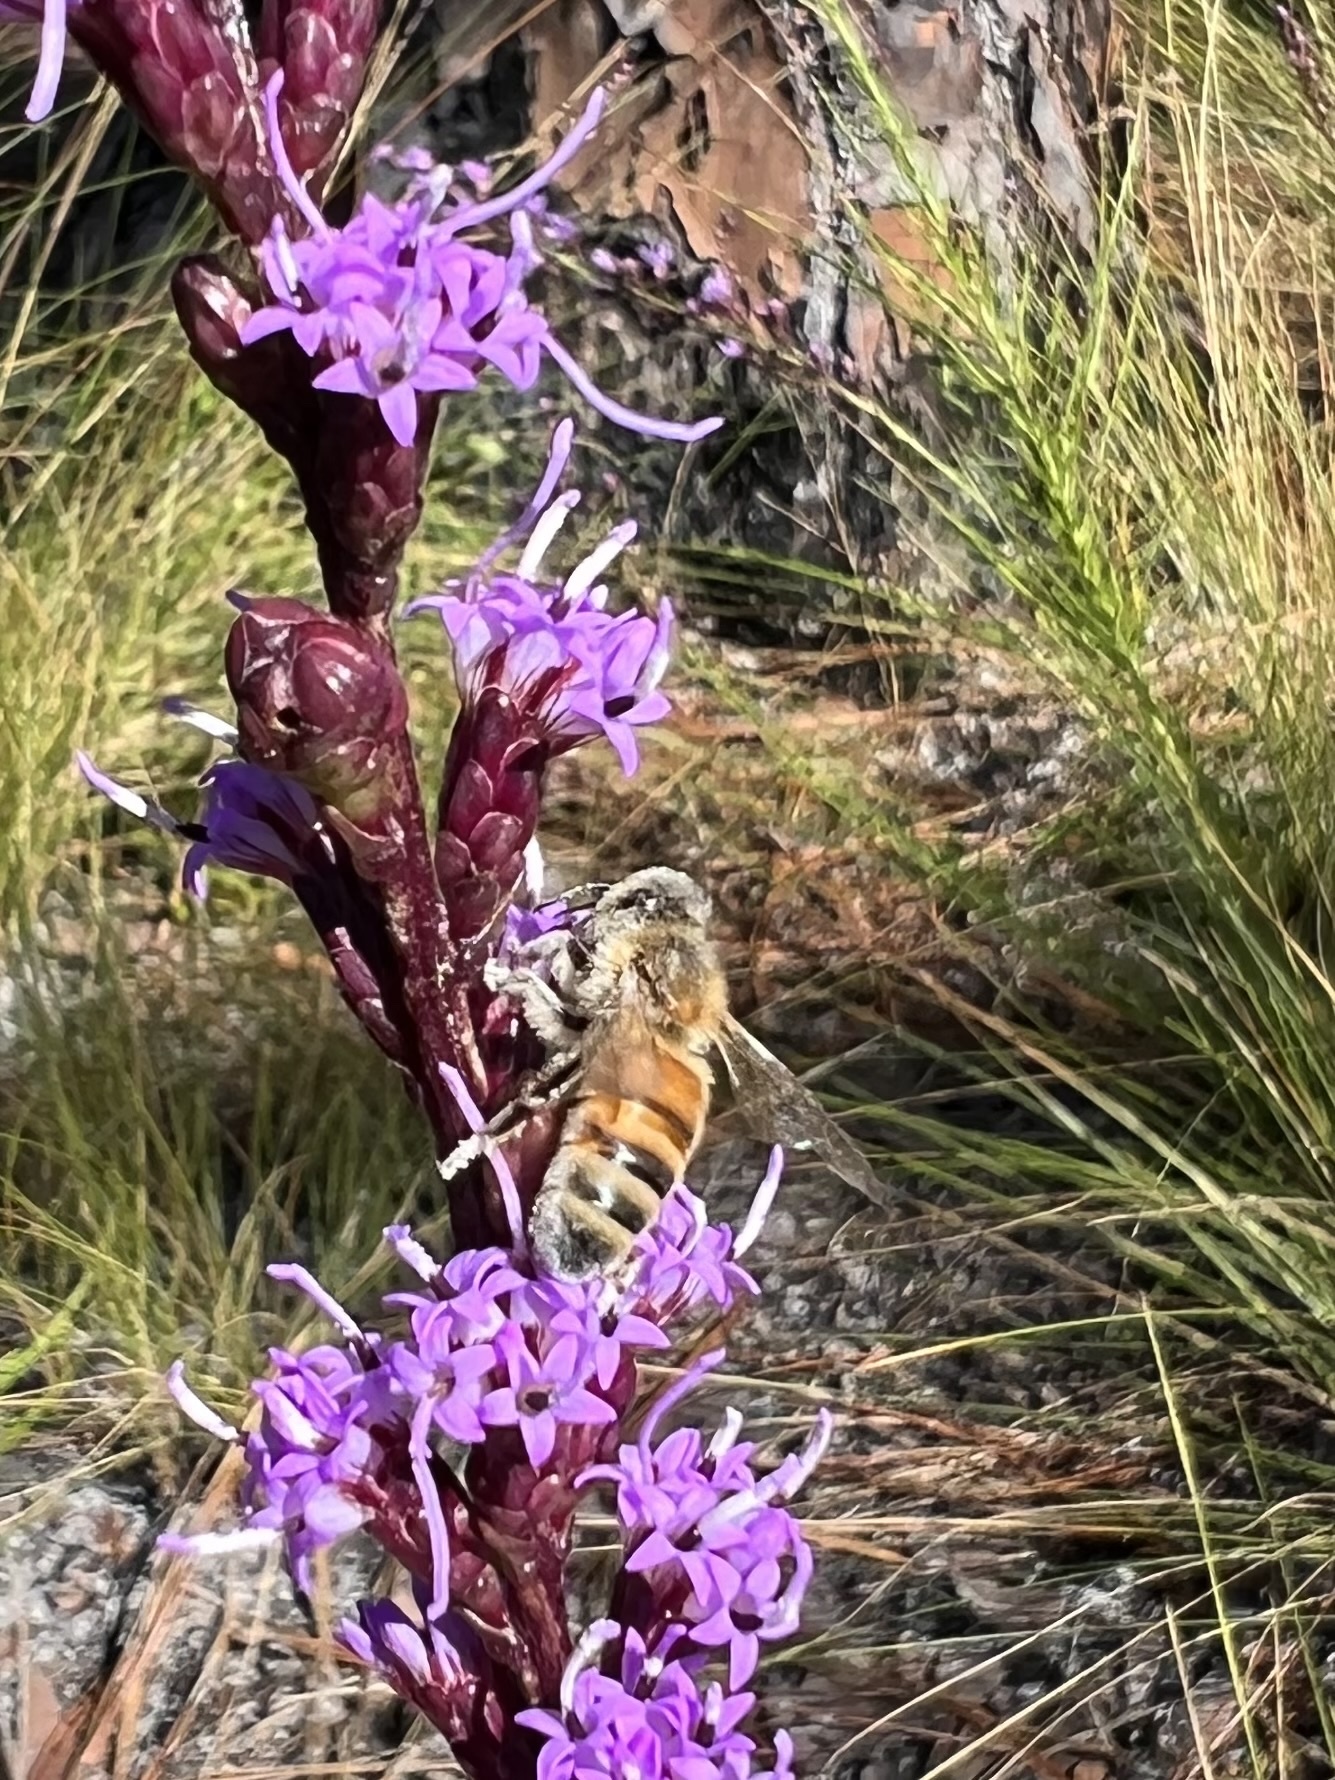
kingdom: Animalia
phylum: Arthropoda
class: Insecta
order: Hymenoptera
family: Apidae
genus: Apis
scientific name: Apis mellifera
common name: Honey bee
